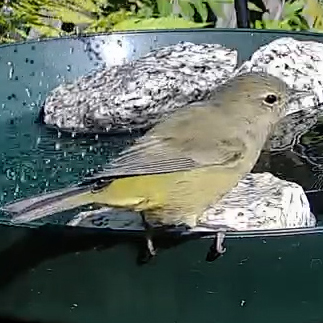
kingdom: Animalia
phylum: Chordata
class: Aves
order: Passeriformes
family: Parulidae
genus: Leiothlypis
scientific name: Leiothlypis celata
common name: Orange-crowned warbler
